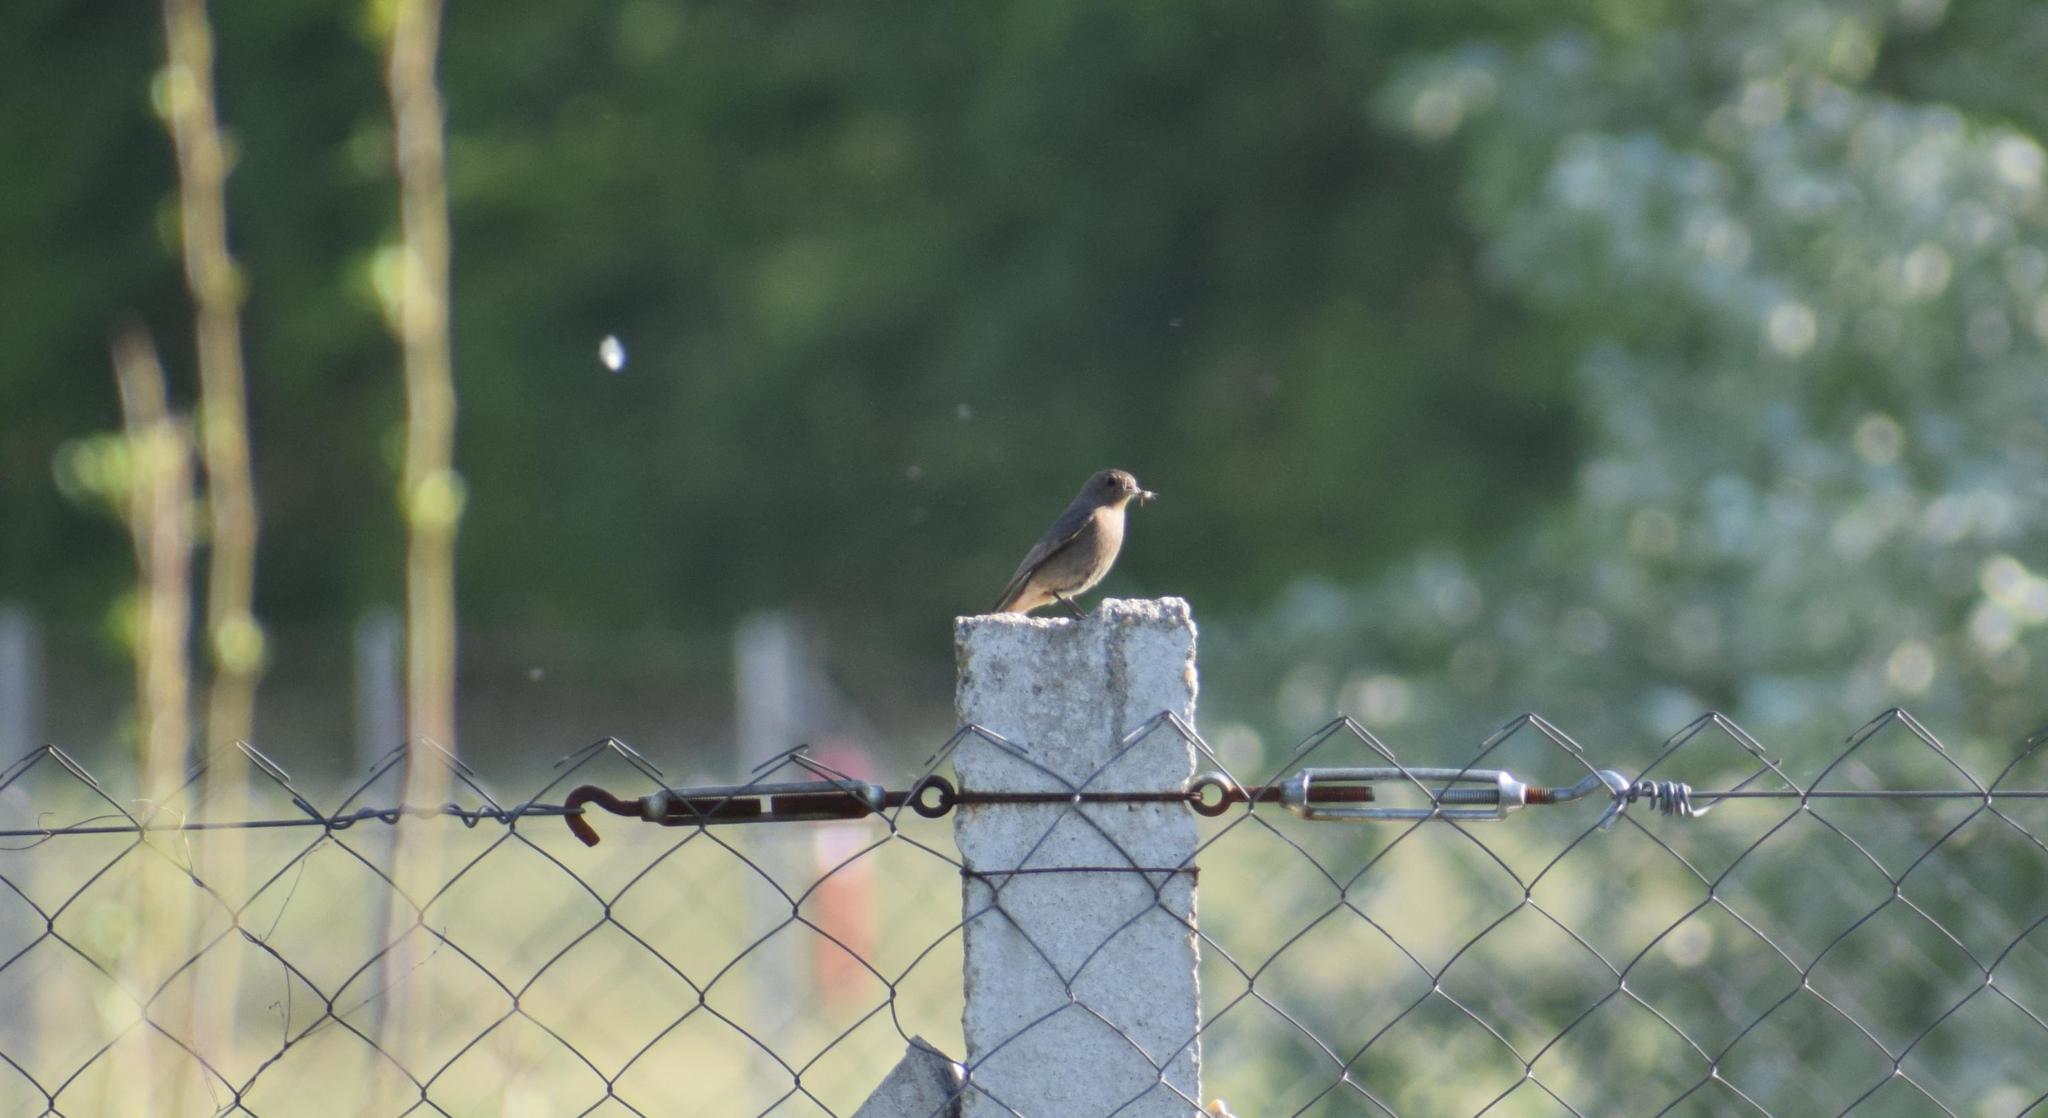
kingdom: Animalia
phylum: Chordata
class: Aves
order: Passeriformes
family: Muscicapidae
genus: Phoenicurus
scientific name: Phoenicurus ochruros
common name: Black redstart
